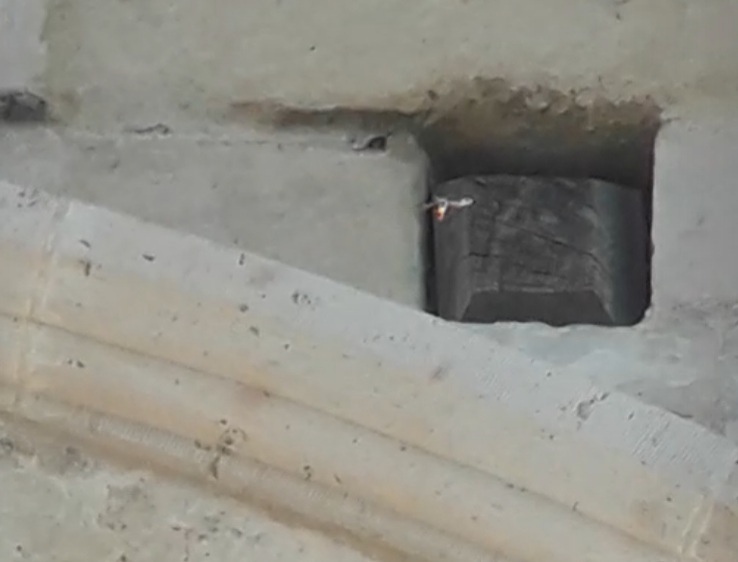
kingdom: Animalia
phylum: Arthropoda
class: Insecta
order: Hymenoptera
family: Vespidae
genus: Vespa
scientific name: Vespa velutina
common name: Asian hornet
